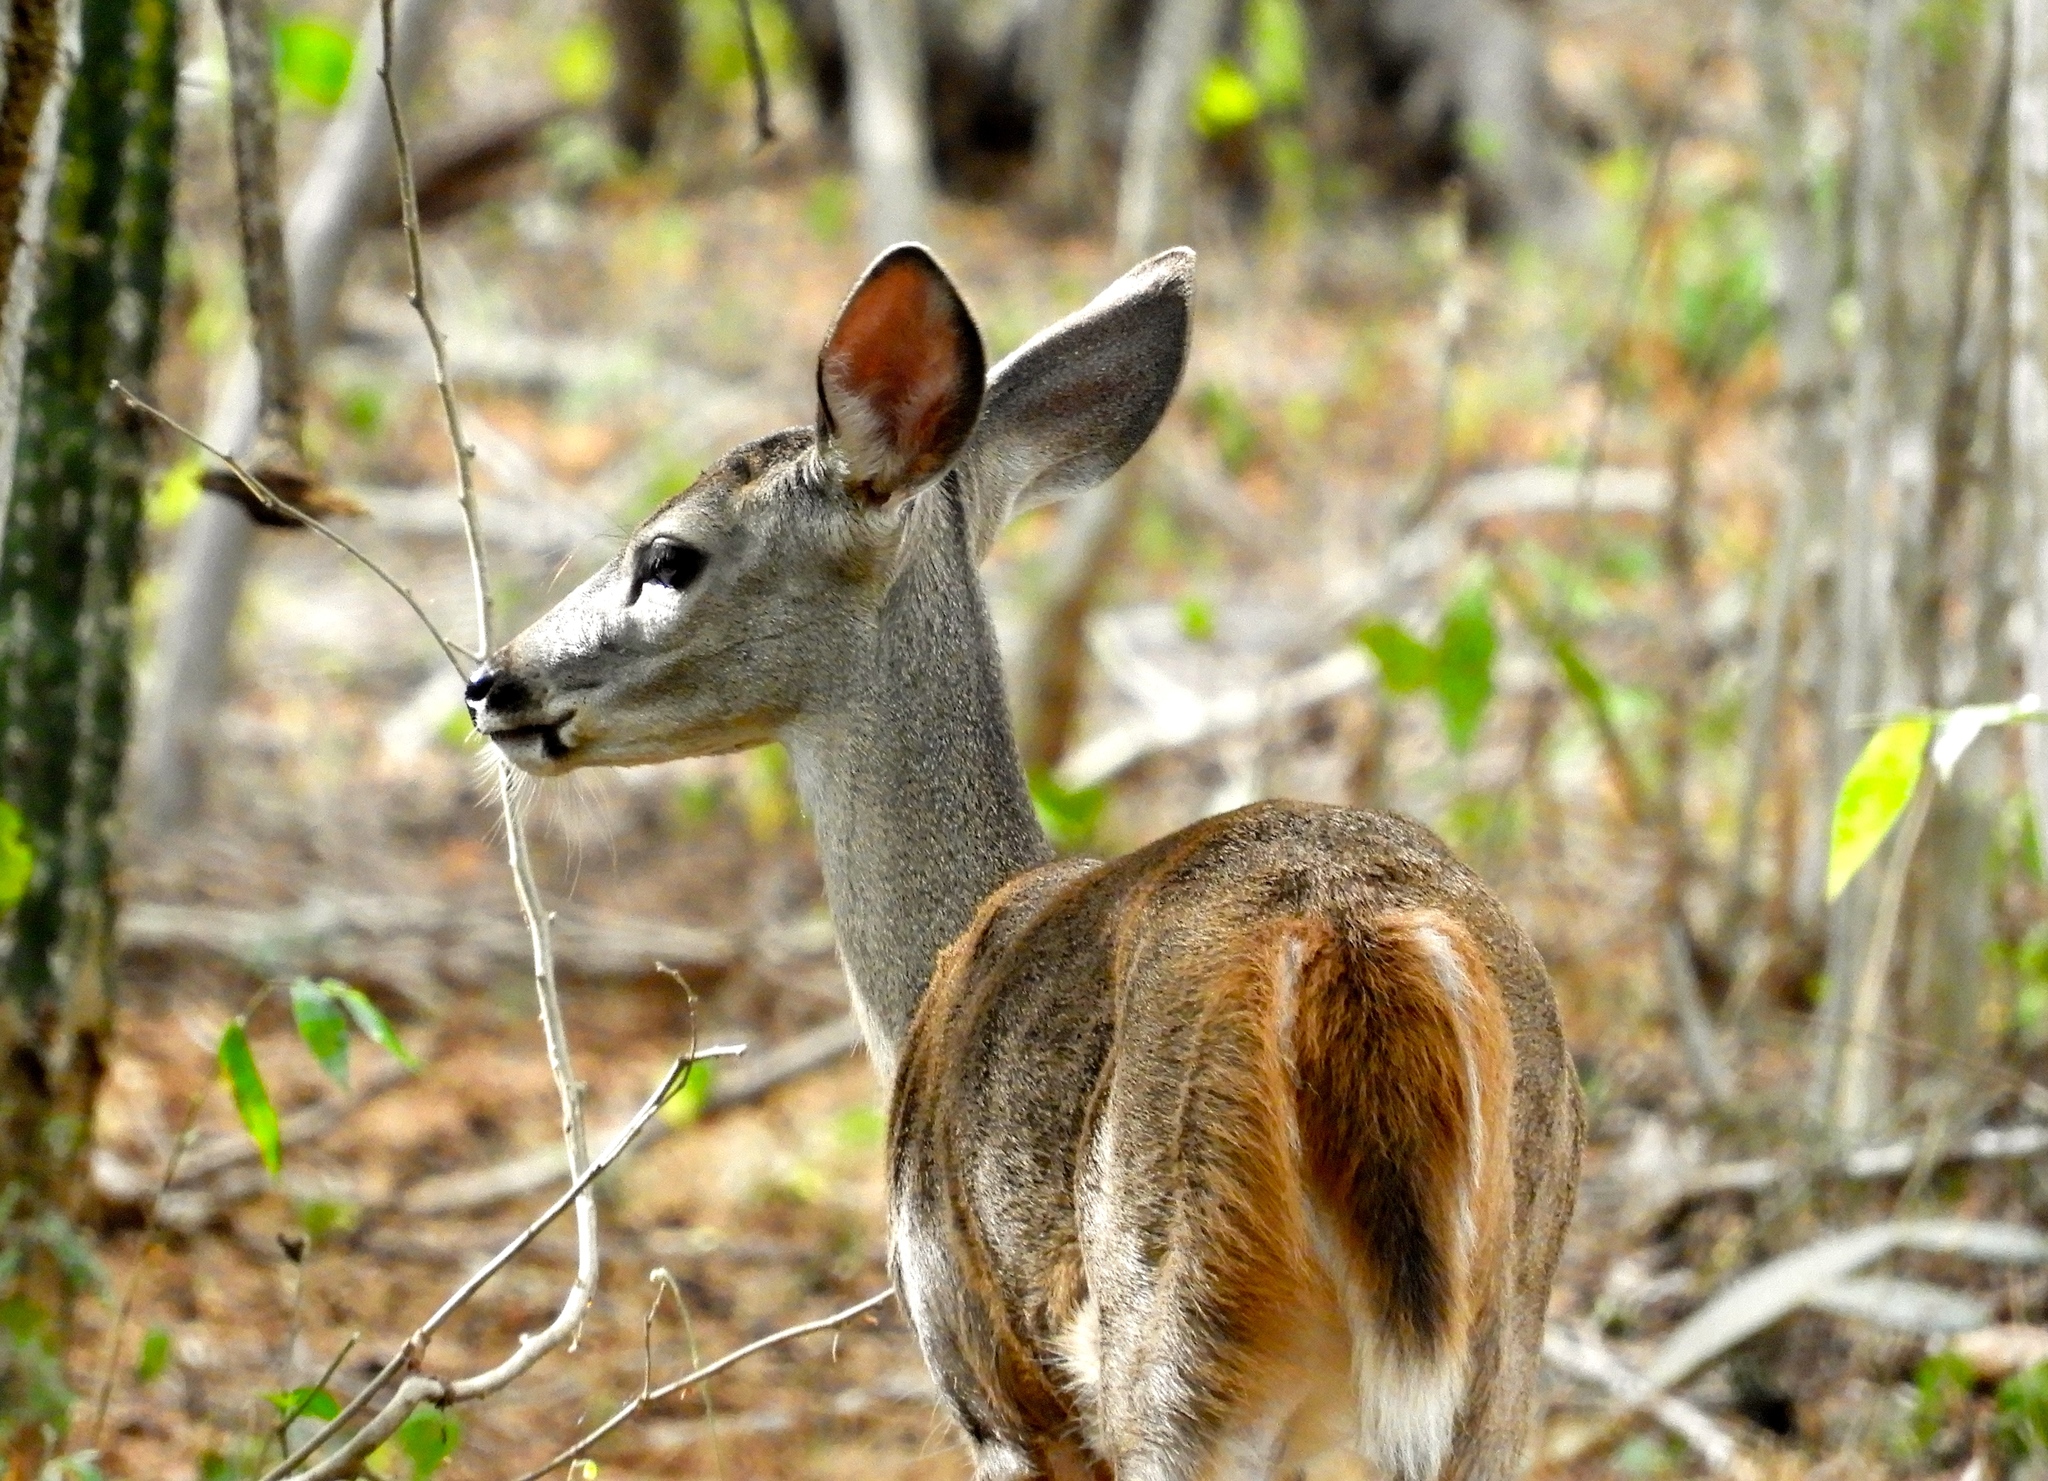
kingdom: Animalia
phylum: Chordata
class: Mammalia
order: Artiodactyla
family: Cervidae
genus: Odocoileus
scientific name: Odocoileus virginianus
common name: White-tailed deer
